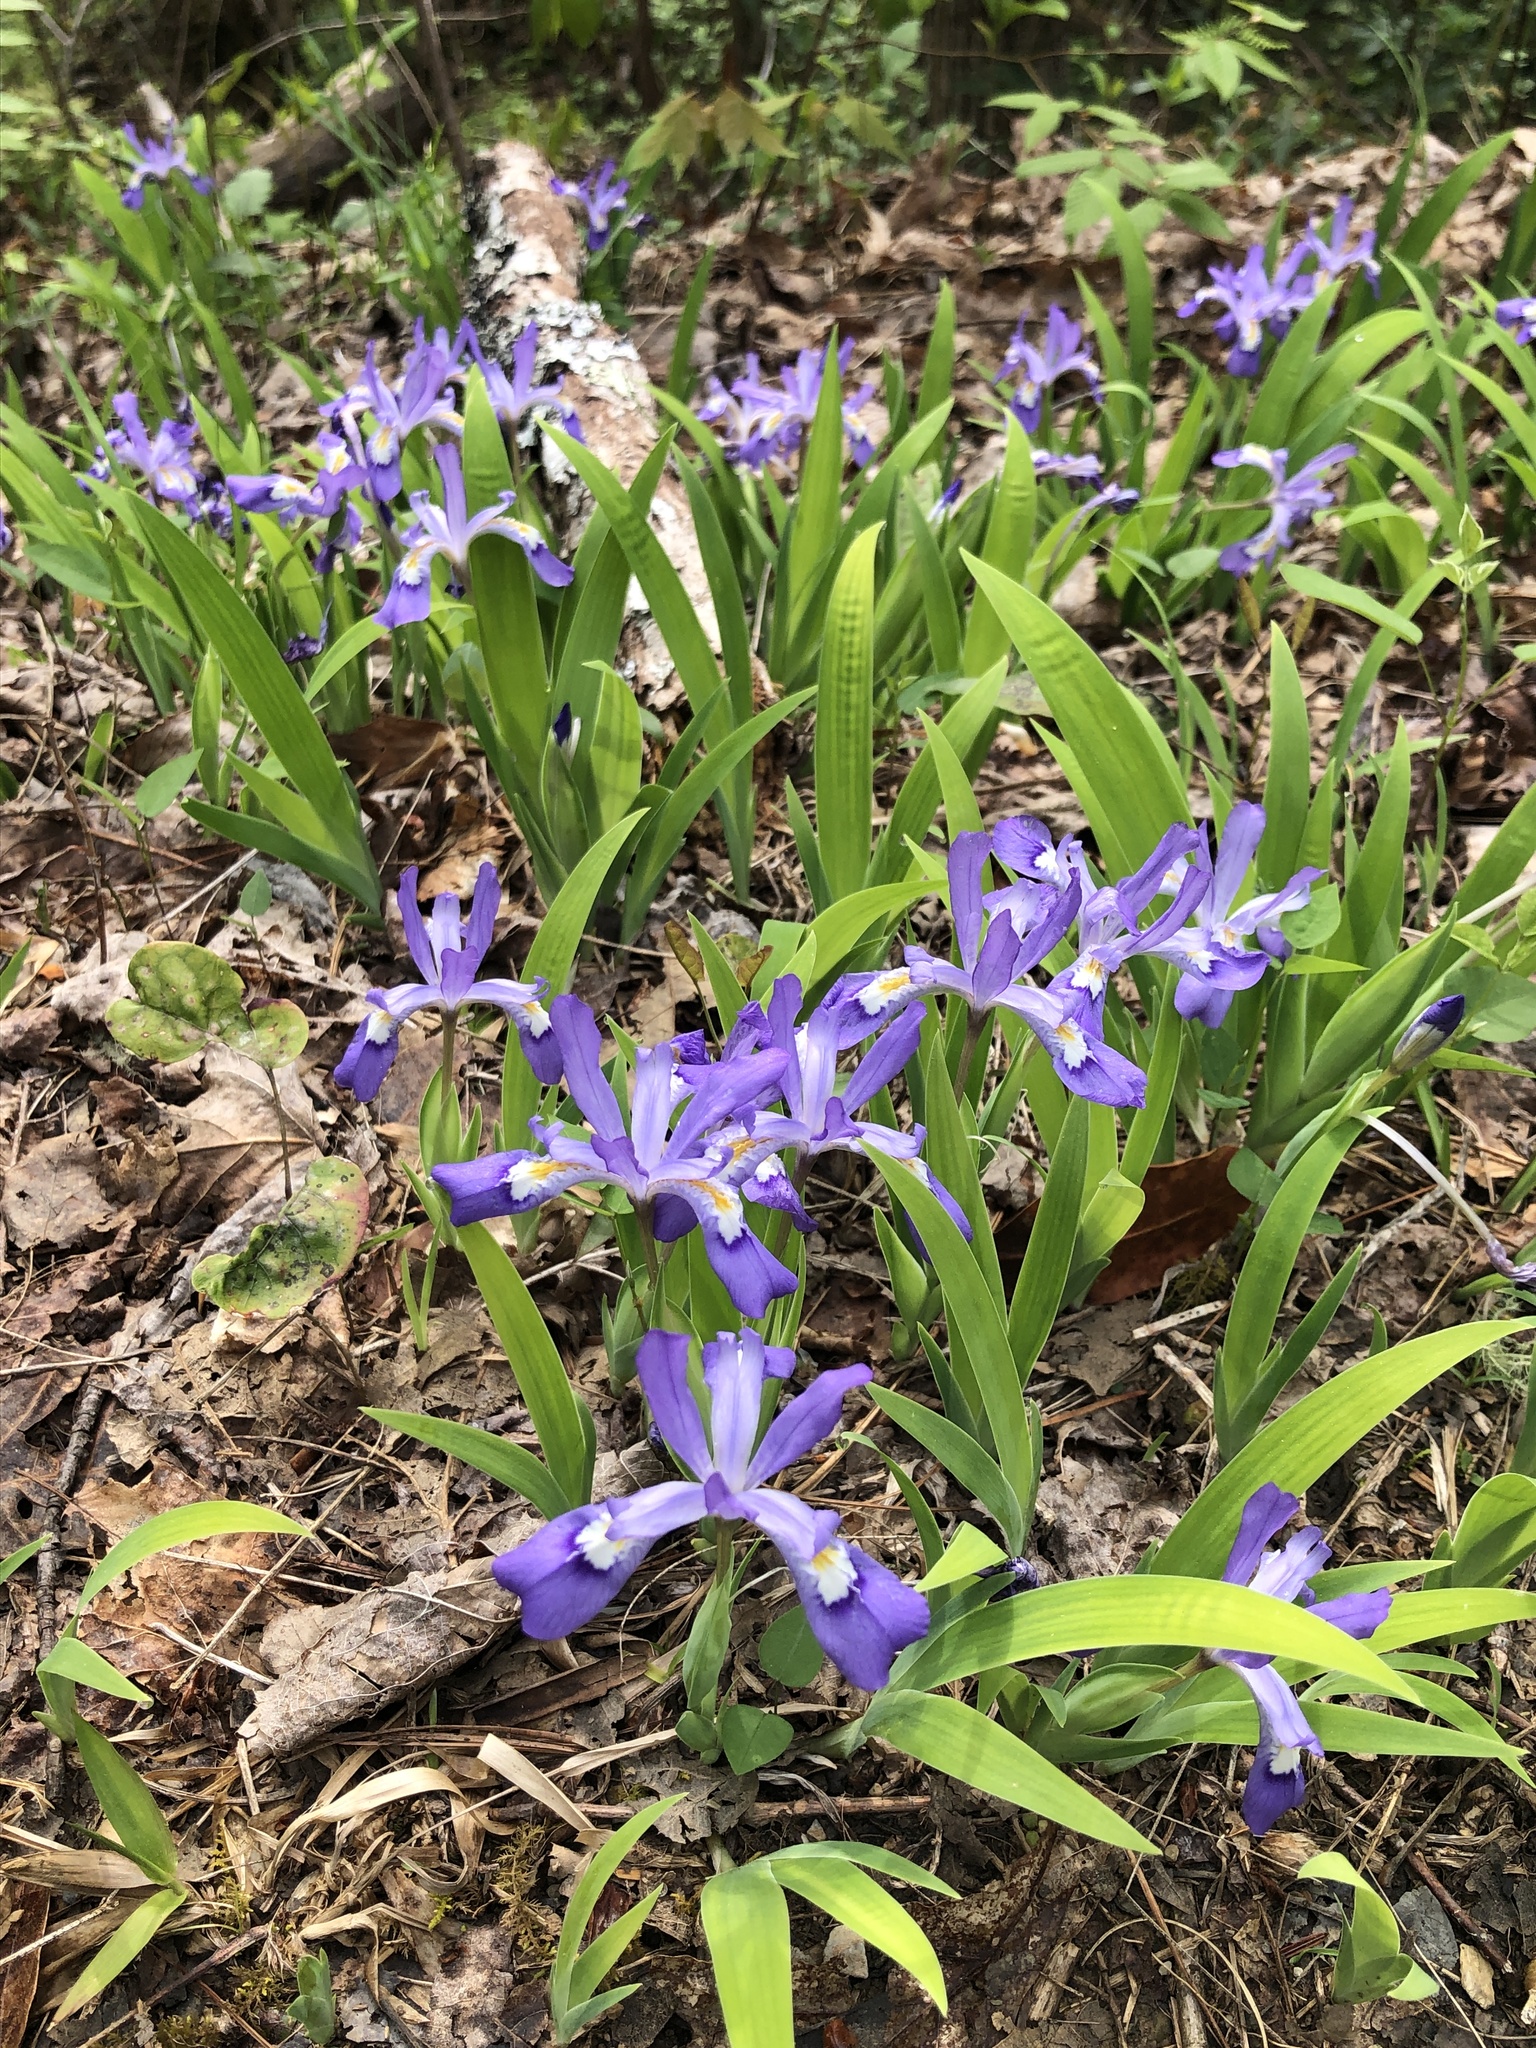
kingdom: Plantae
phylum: Tracheophyta
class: Liliopsida
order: Asparagales
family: Iridaceae
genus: Iris
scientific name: Iris cristata
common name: Crested iris
